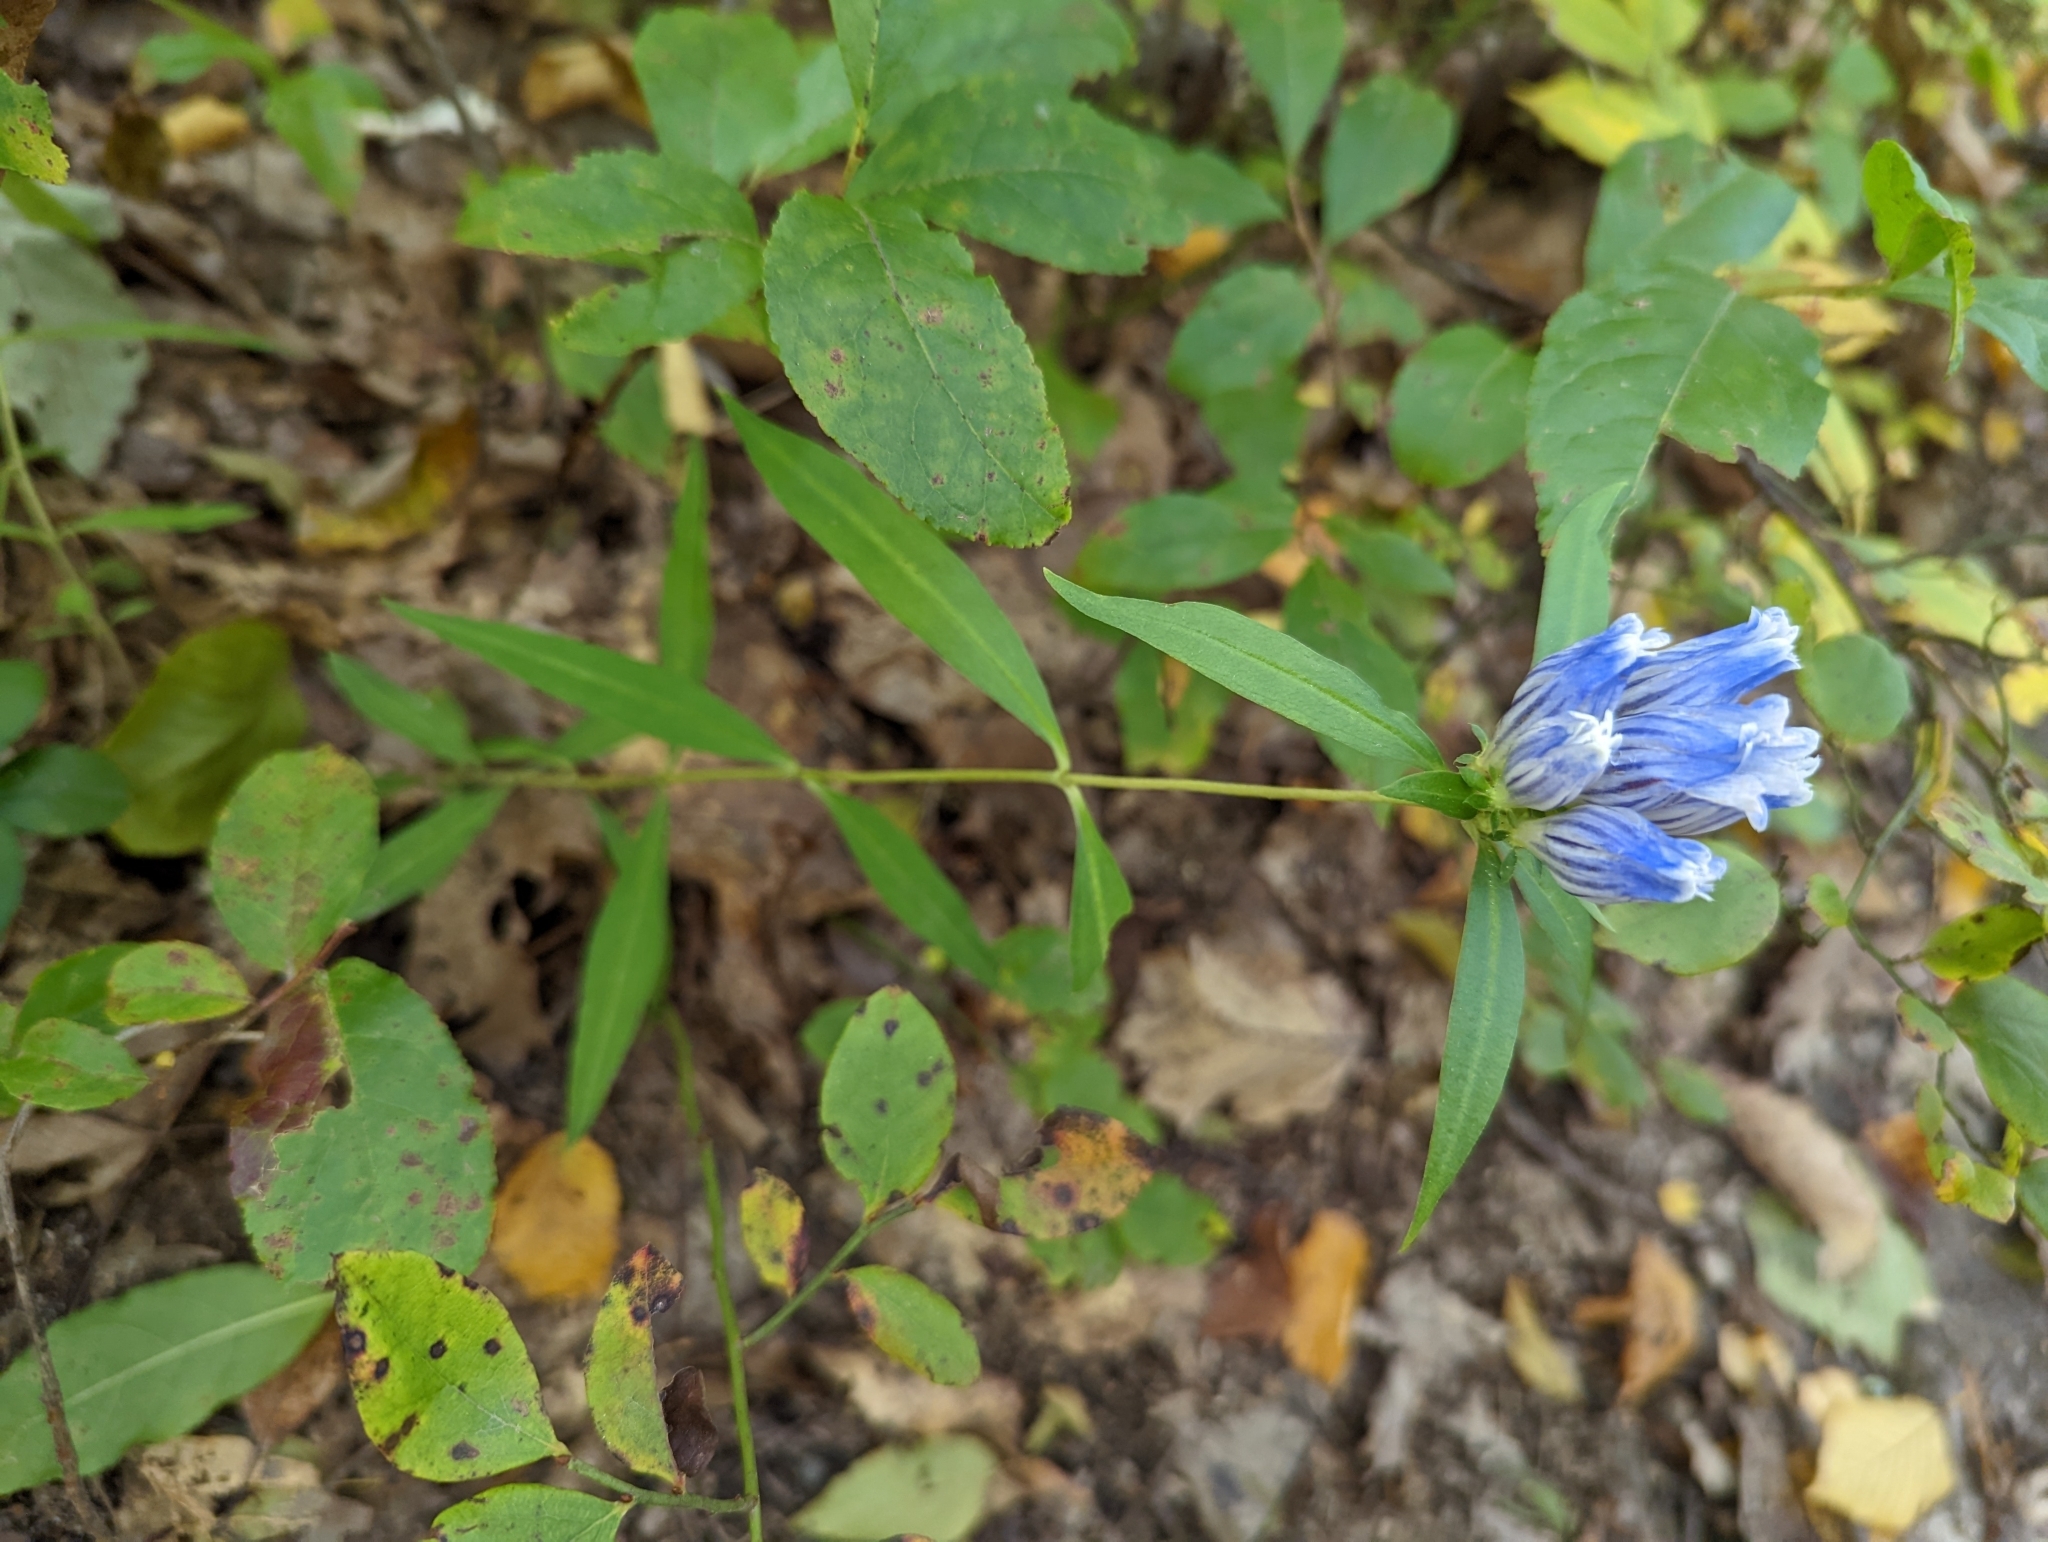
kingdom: Plantae
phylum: Tracheophyta
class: Magnoliopsida
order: Gentianales
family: Gentianaceae
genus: Gentiana
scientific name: Gentiana decora
